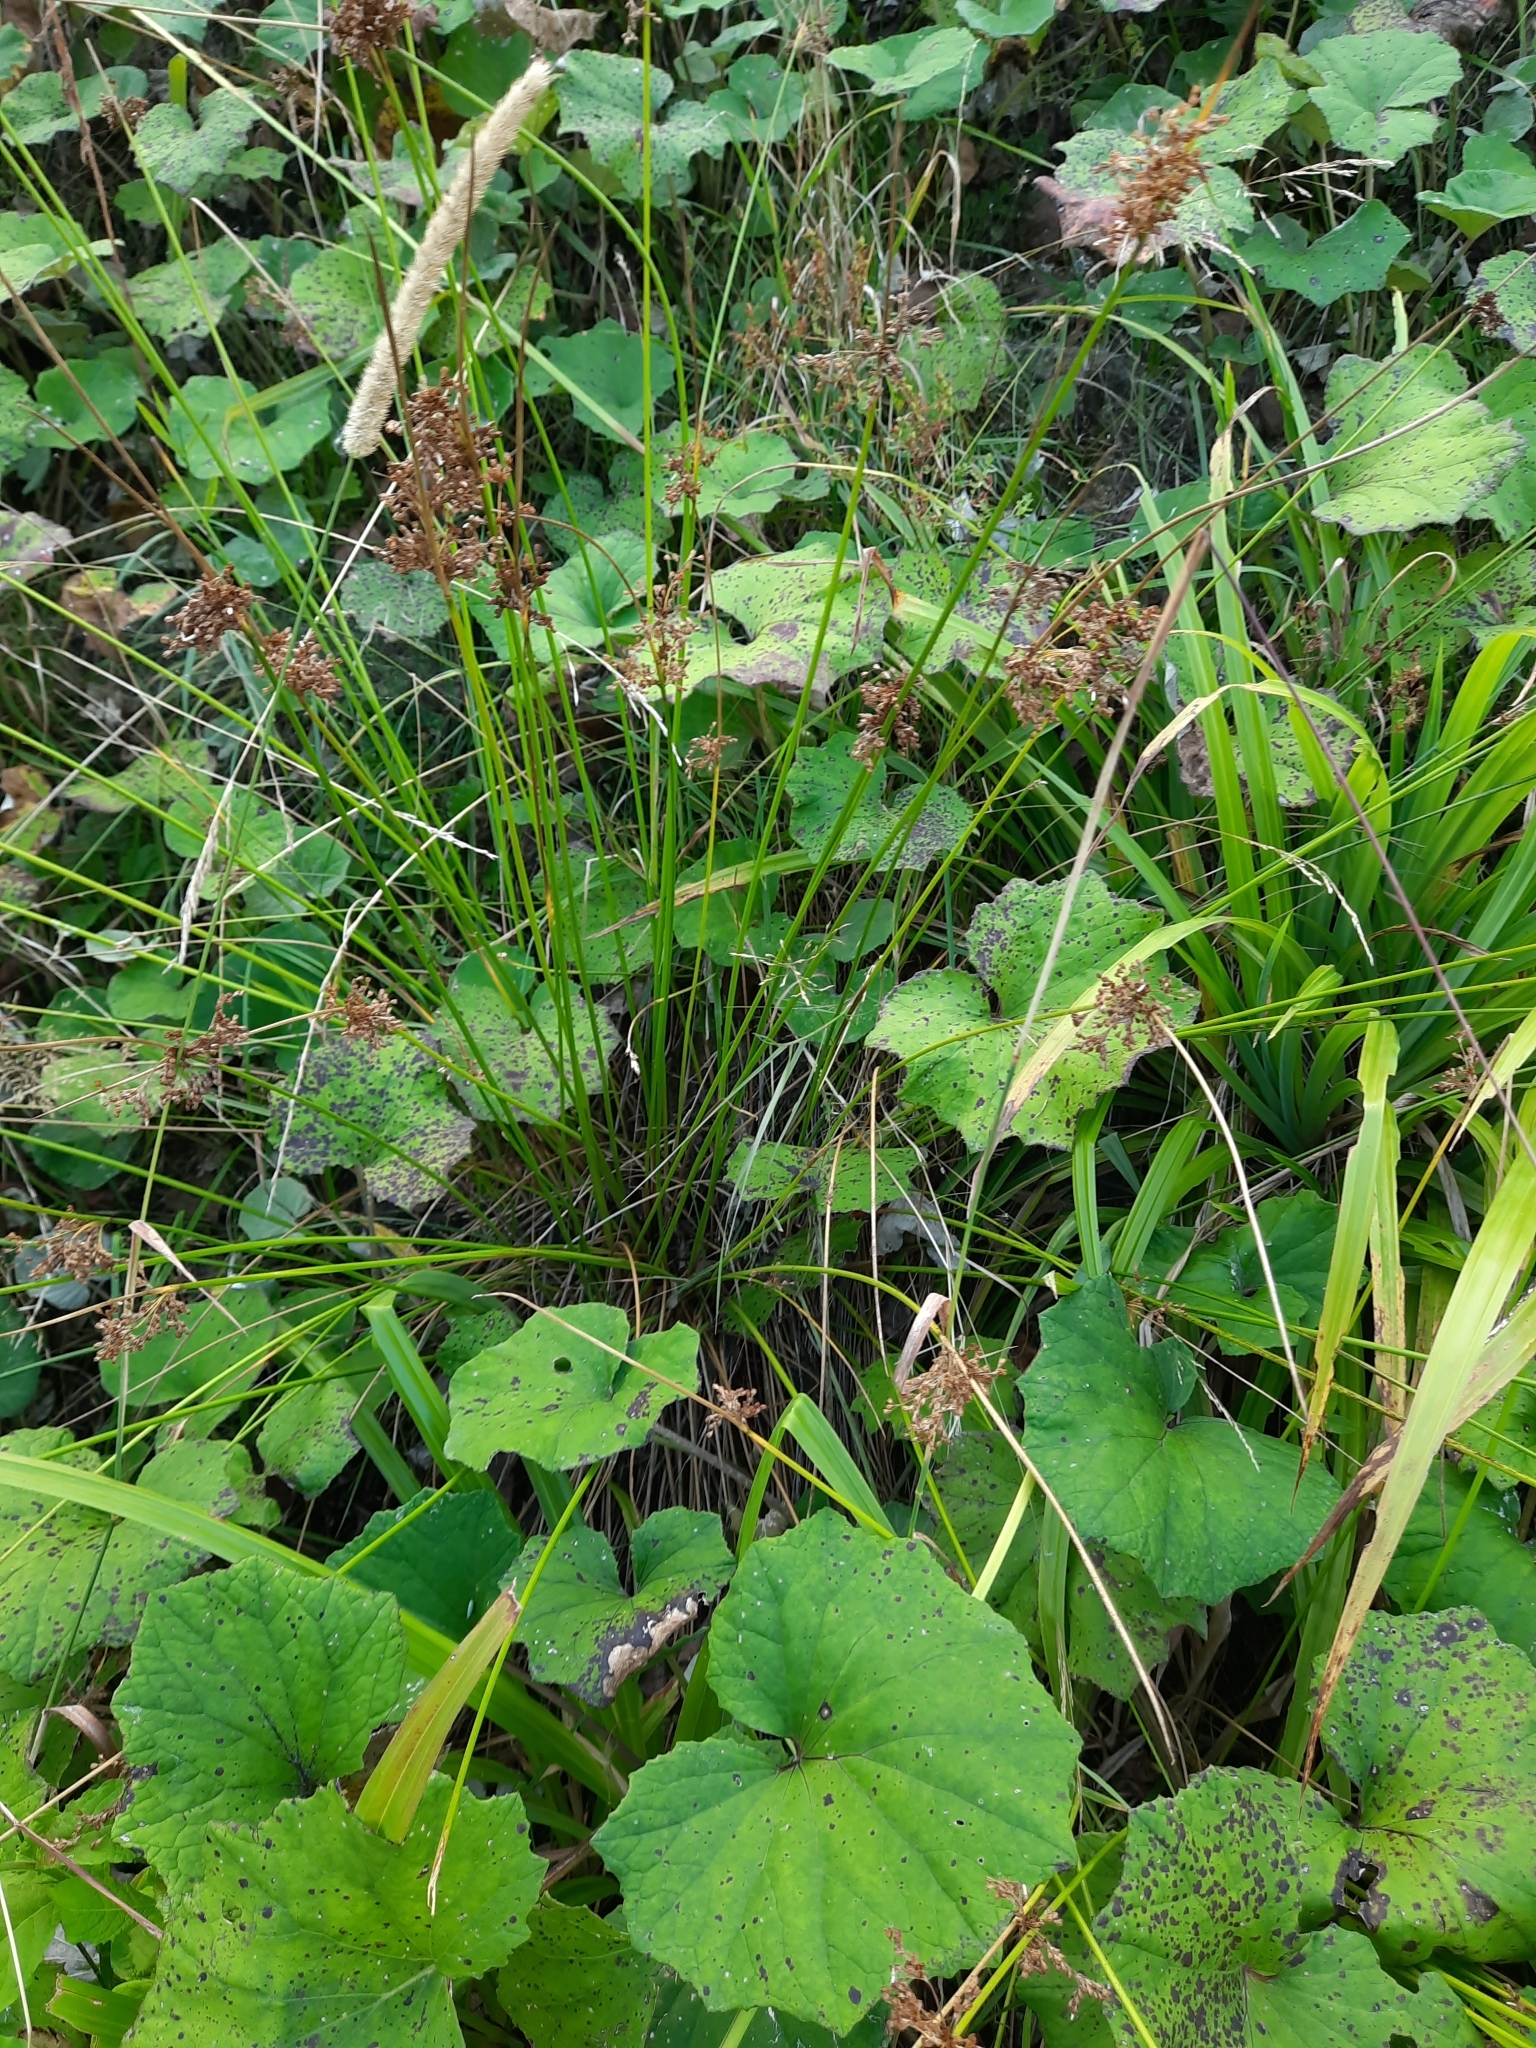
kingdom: Plantae
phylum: Tracheophyta
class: Liliopsida
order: Poales
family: Juncaceae
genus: Juncus
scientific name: Juncus effusus
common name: Soft rush
